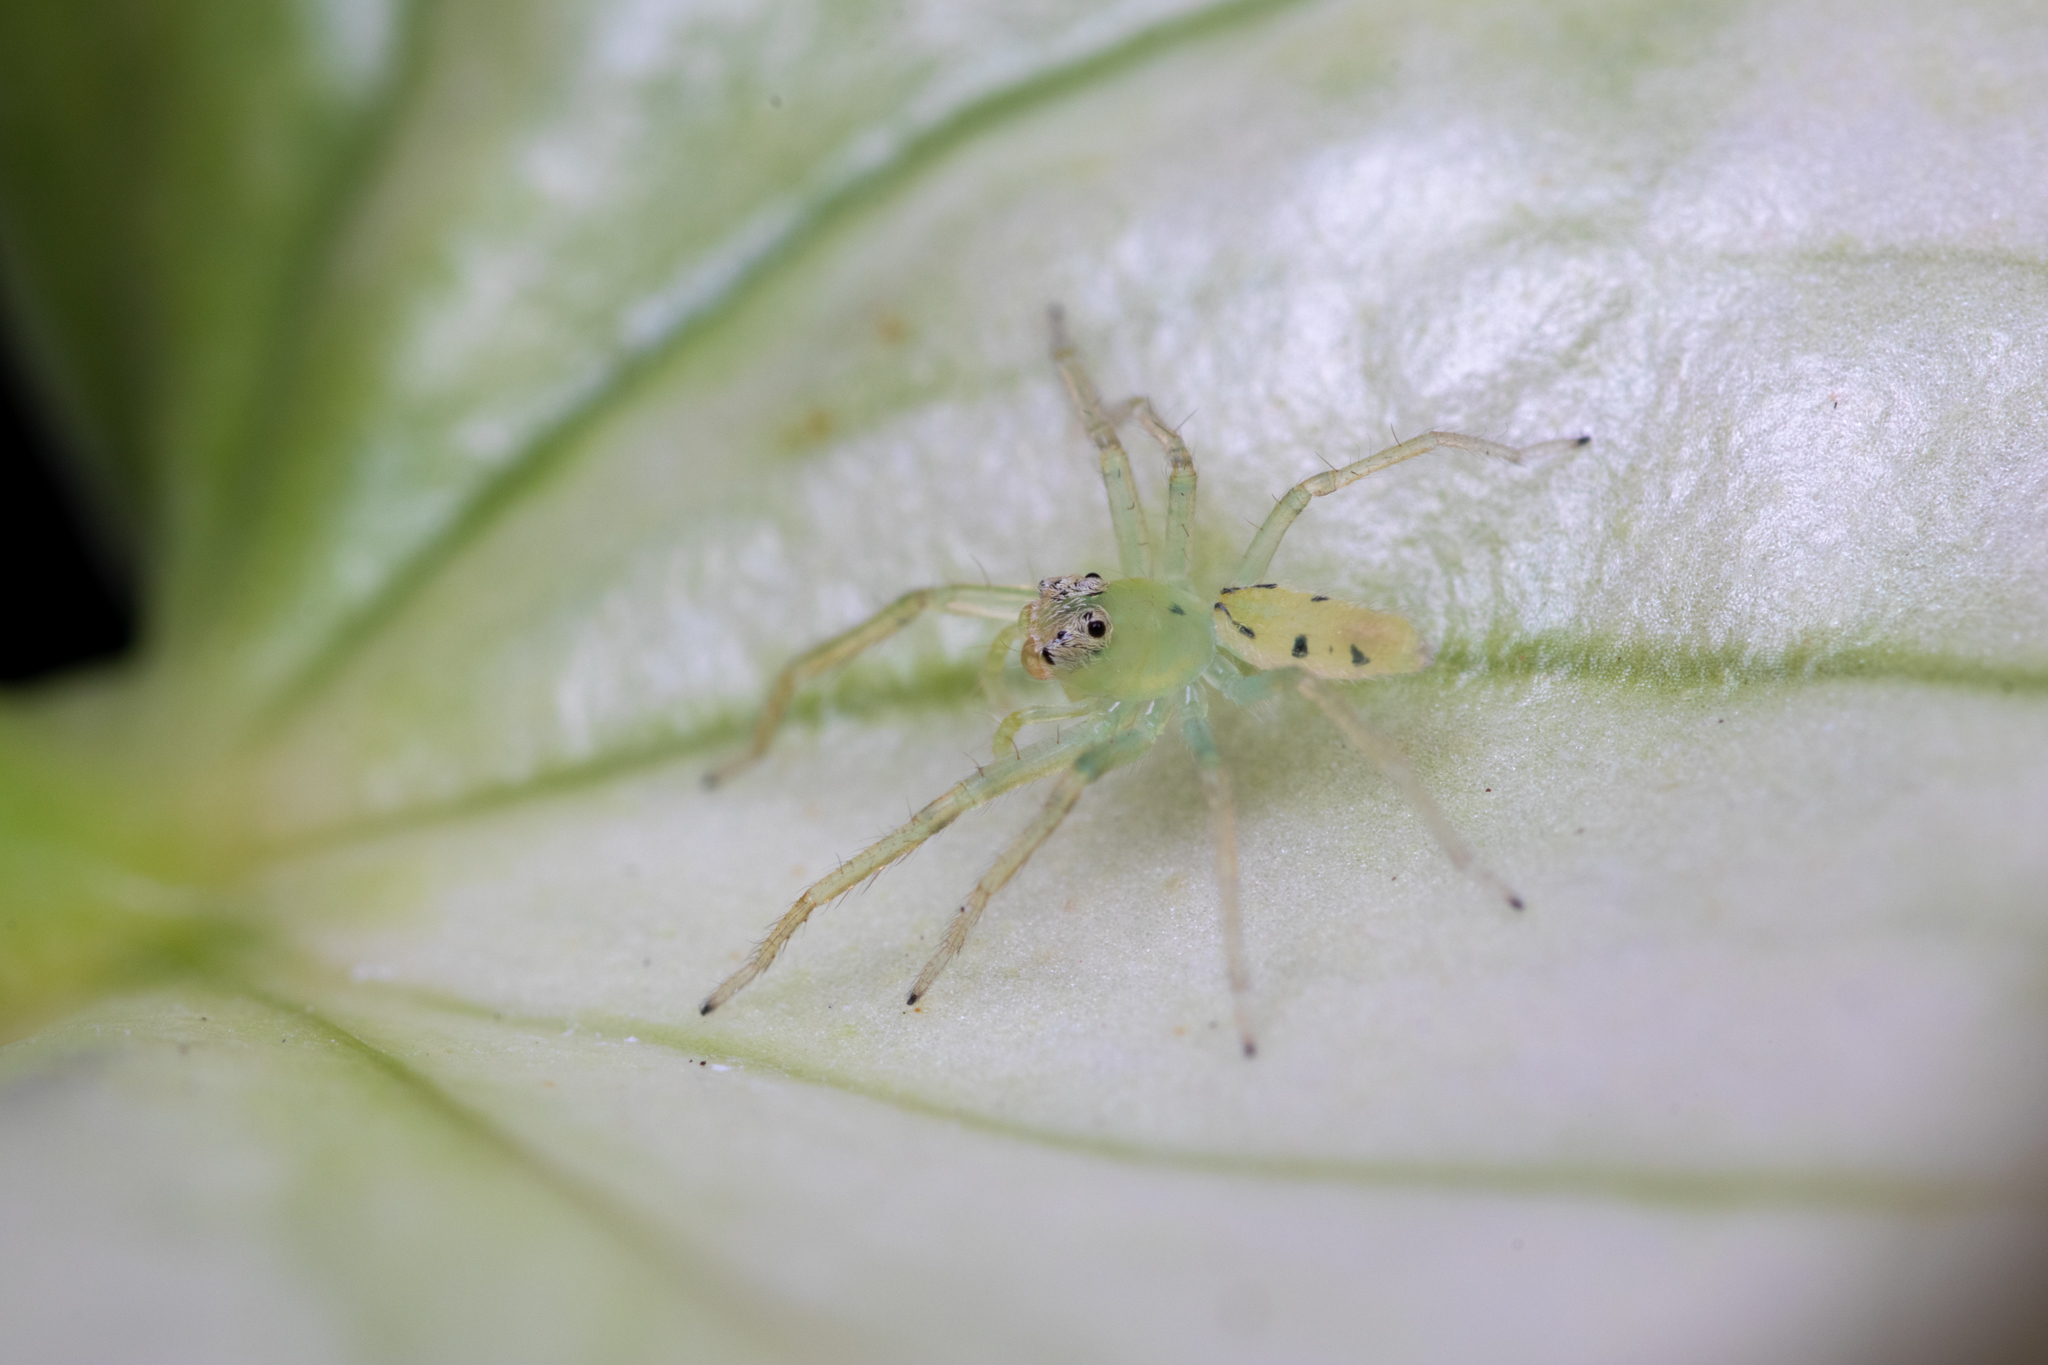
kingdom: Animalia
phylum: Arthropoda
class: Arachnida
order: Araneae
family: Salticidae
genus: Lyssomanes
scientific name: Lyssomanes viridis
